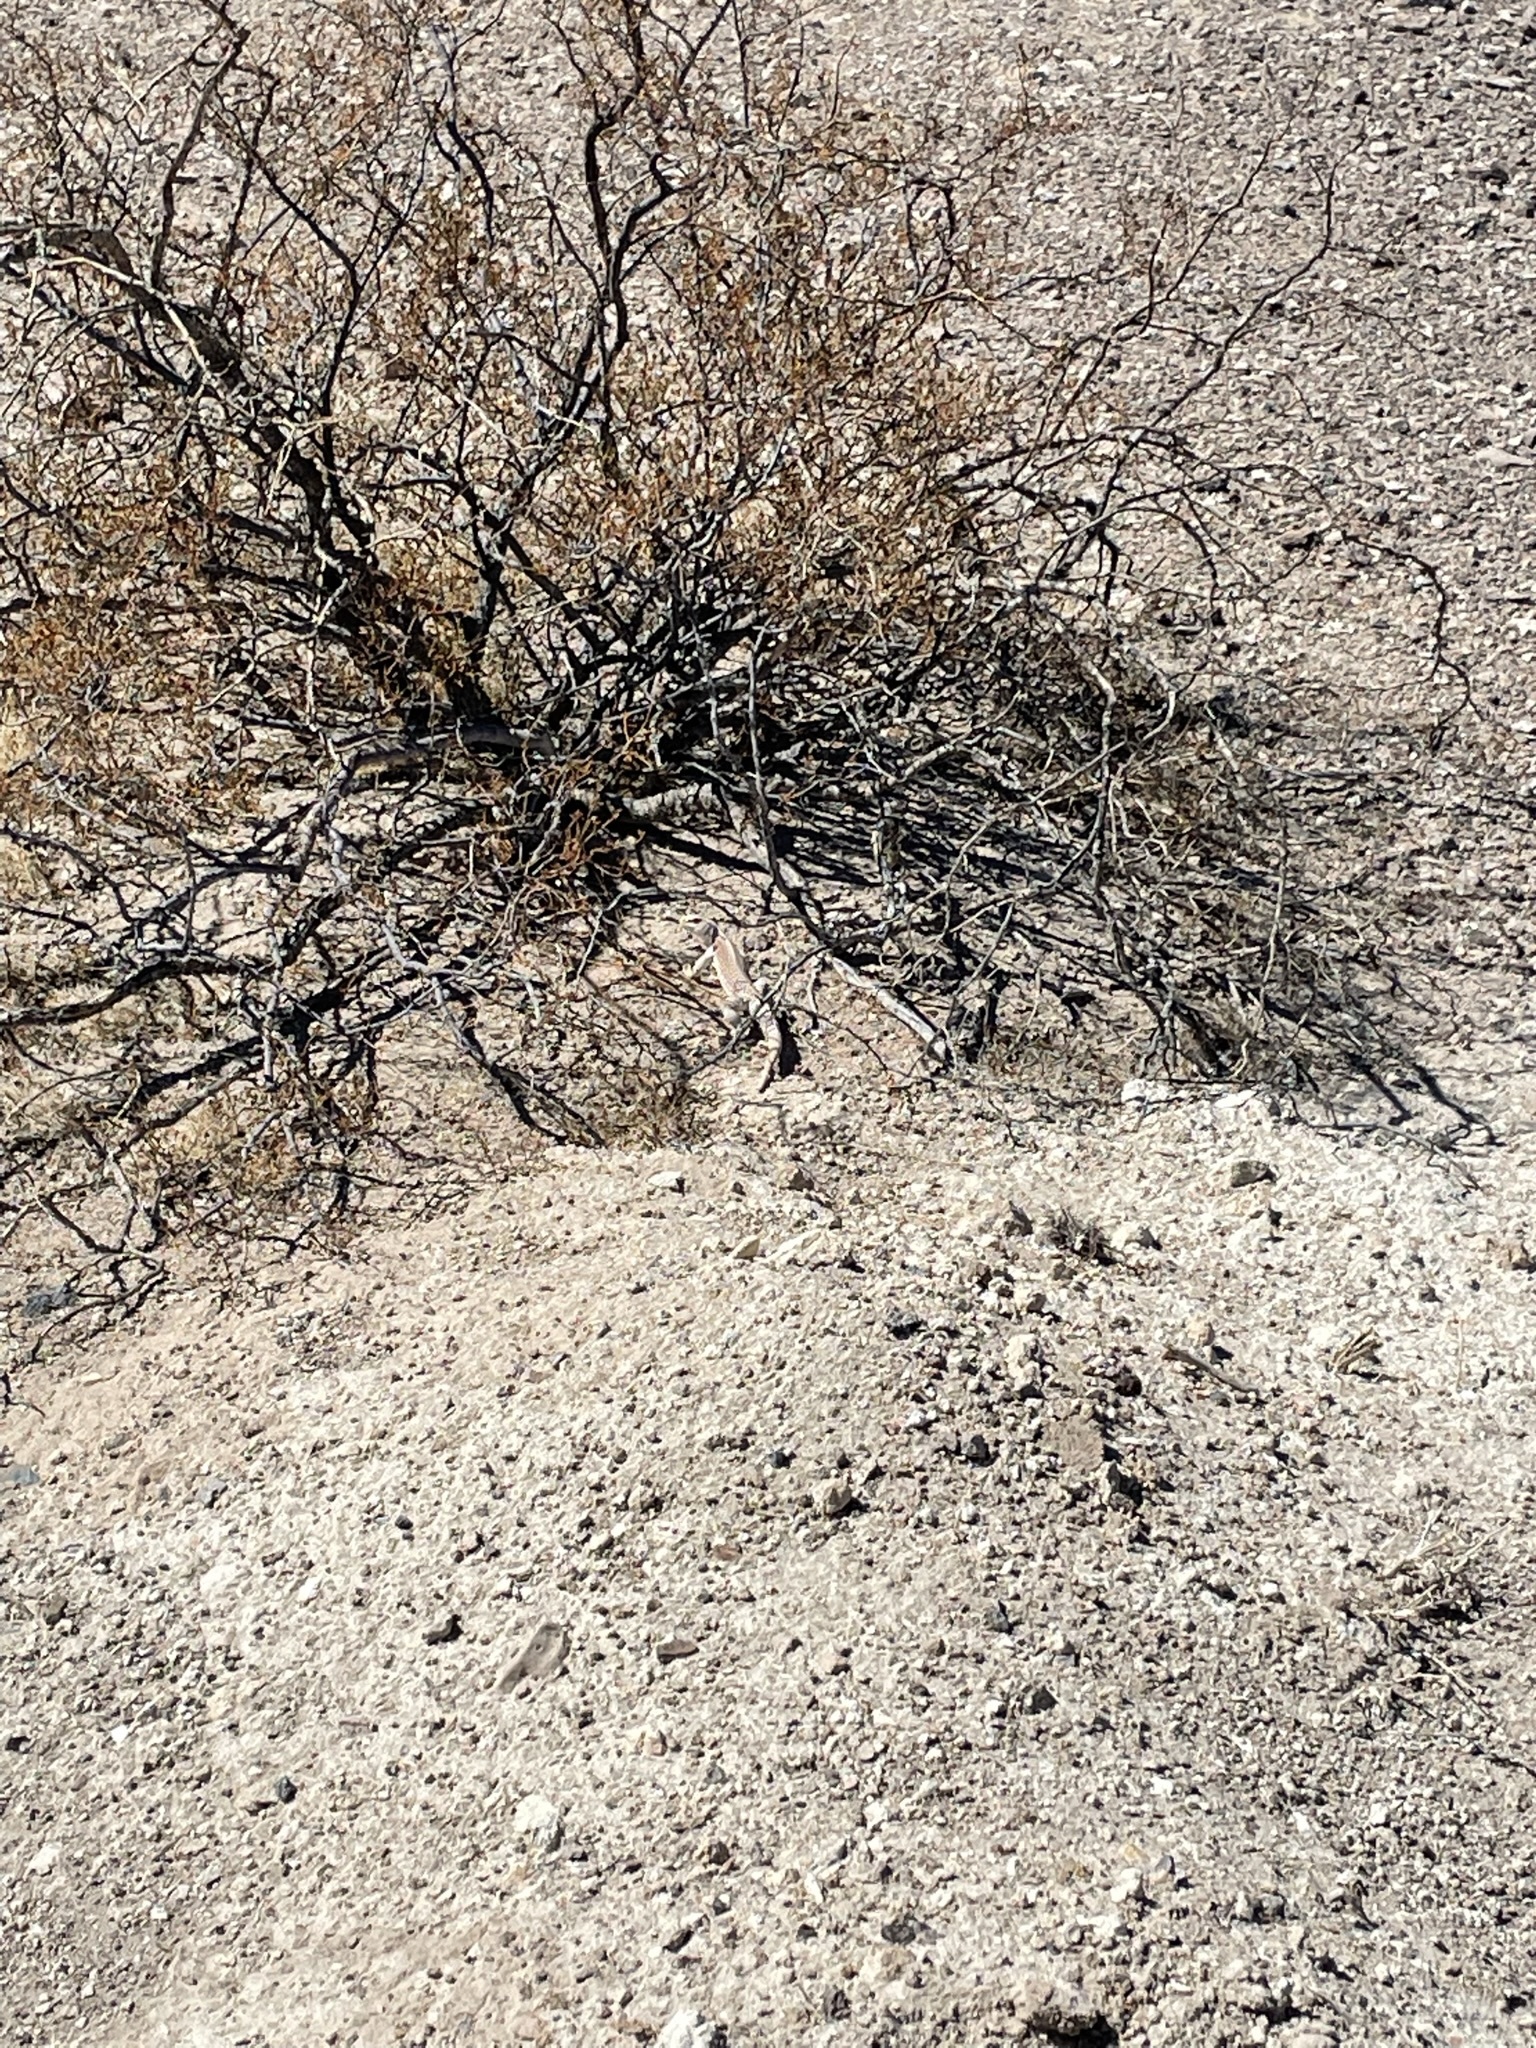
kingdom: Animalia
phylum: Chordata
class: Squamata
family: Iguanidae
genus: Dipsosaurus
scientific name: Dipsosaurus dorsalis
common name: Desert iguana
